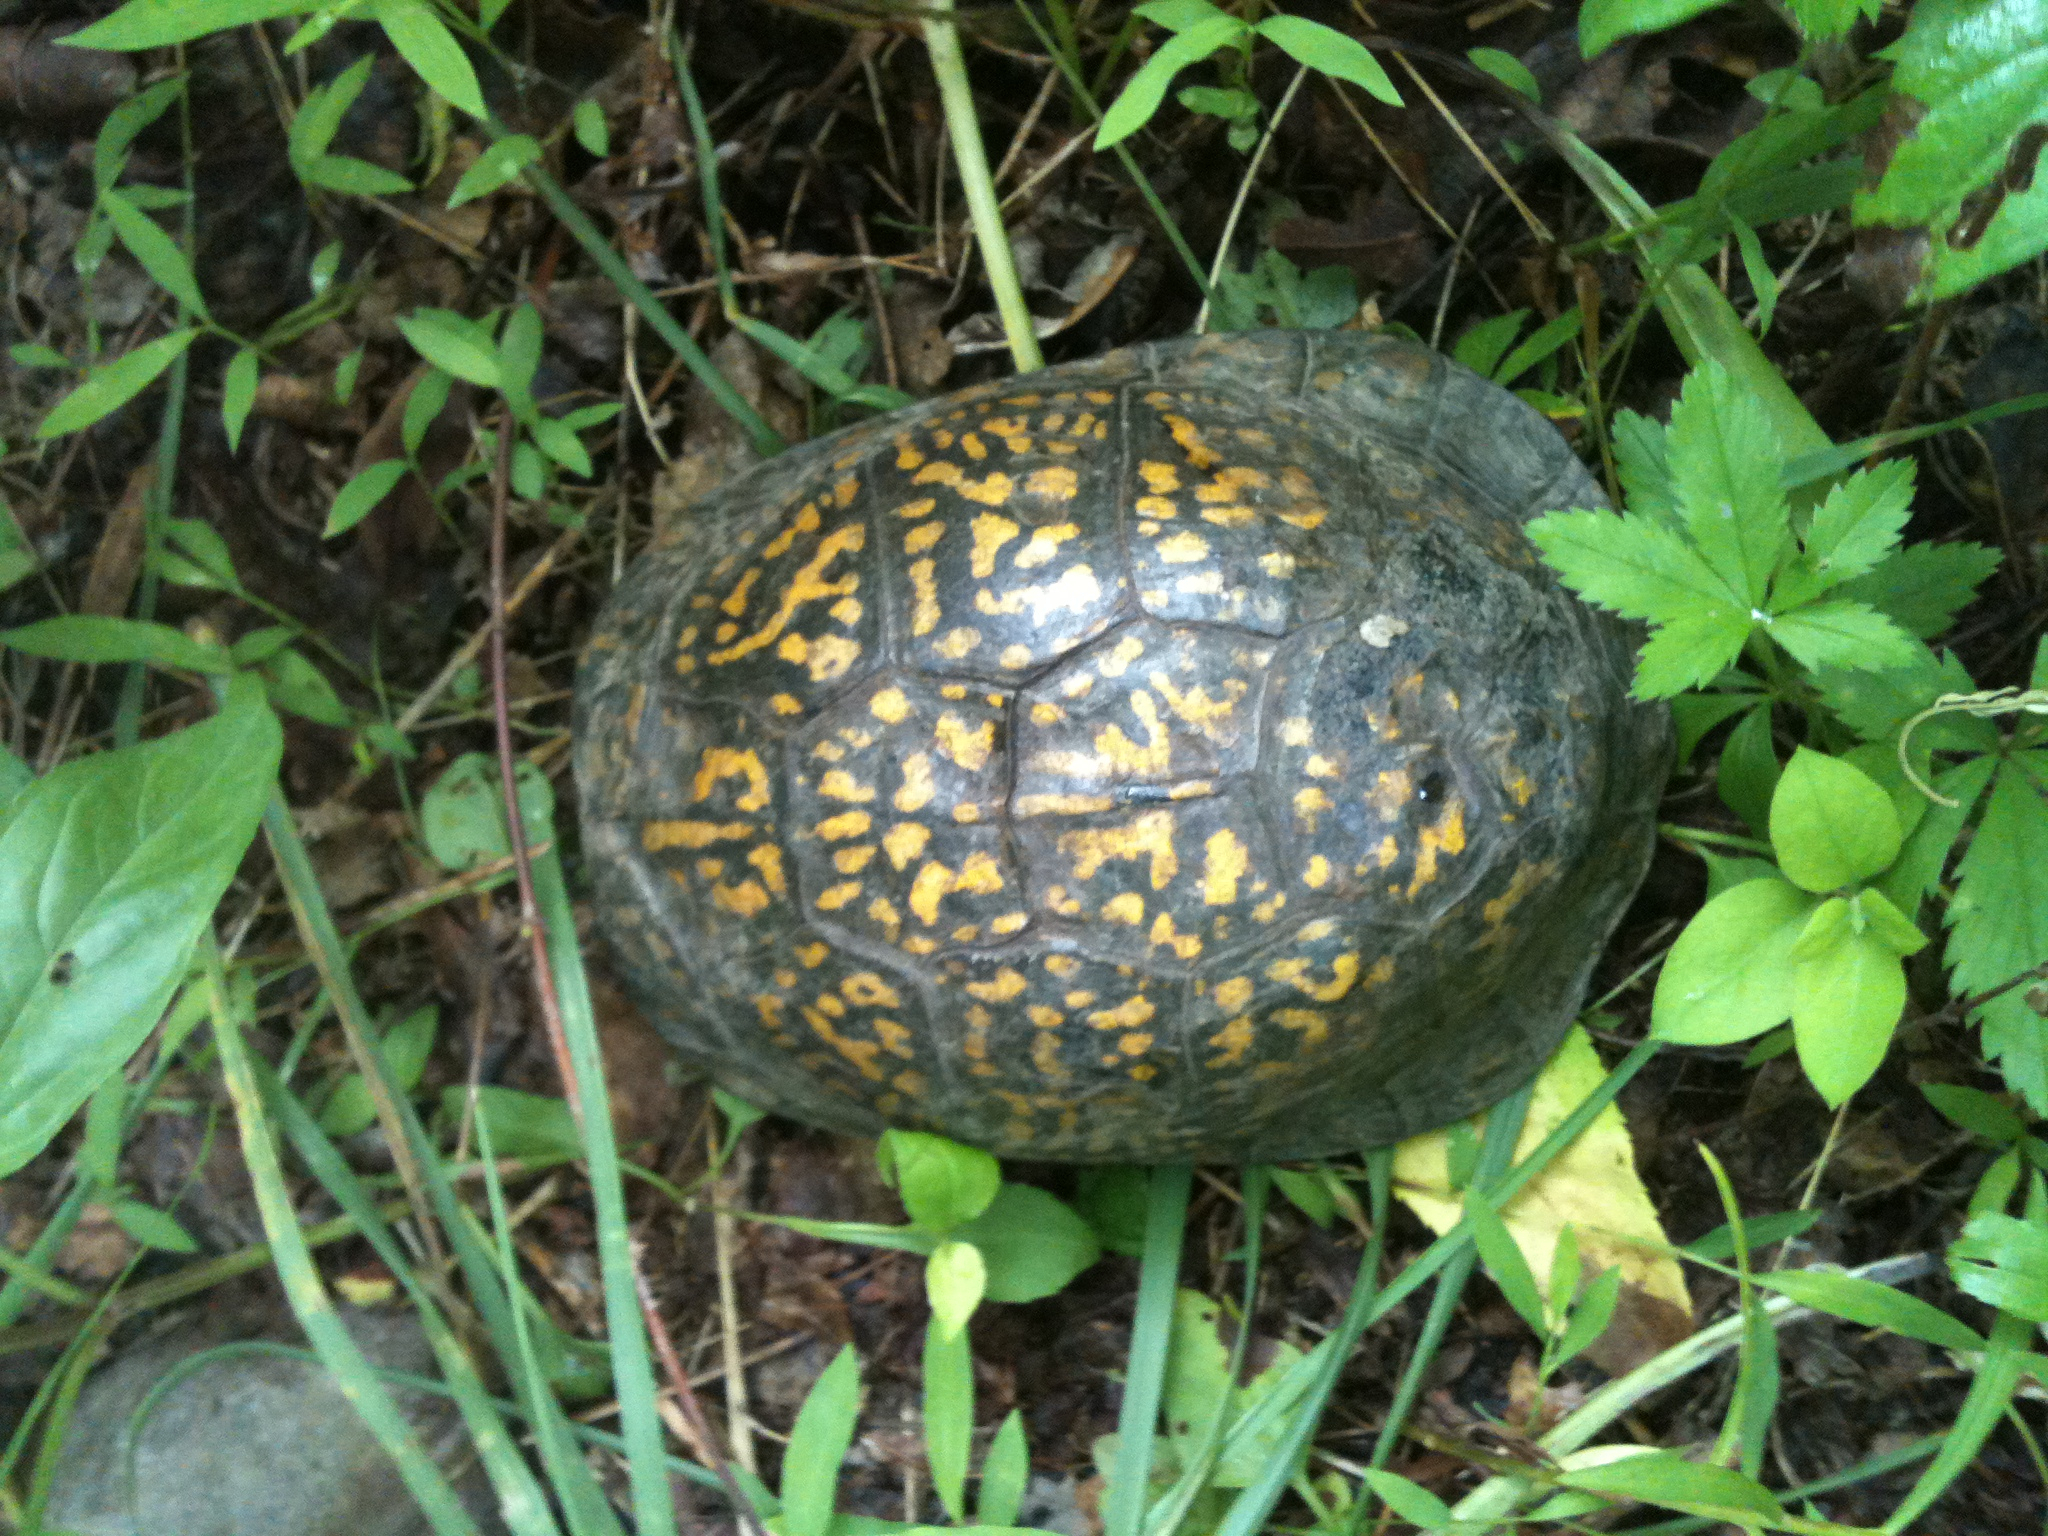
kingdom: Animalia
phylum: Chordata
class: Testudines
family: Emydidae
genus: Terrapene
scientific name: Terrapene carolina
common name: Common box turtle
